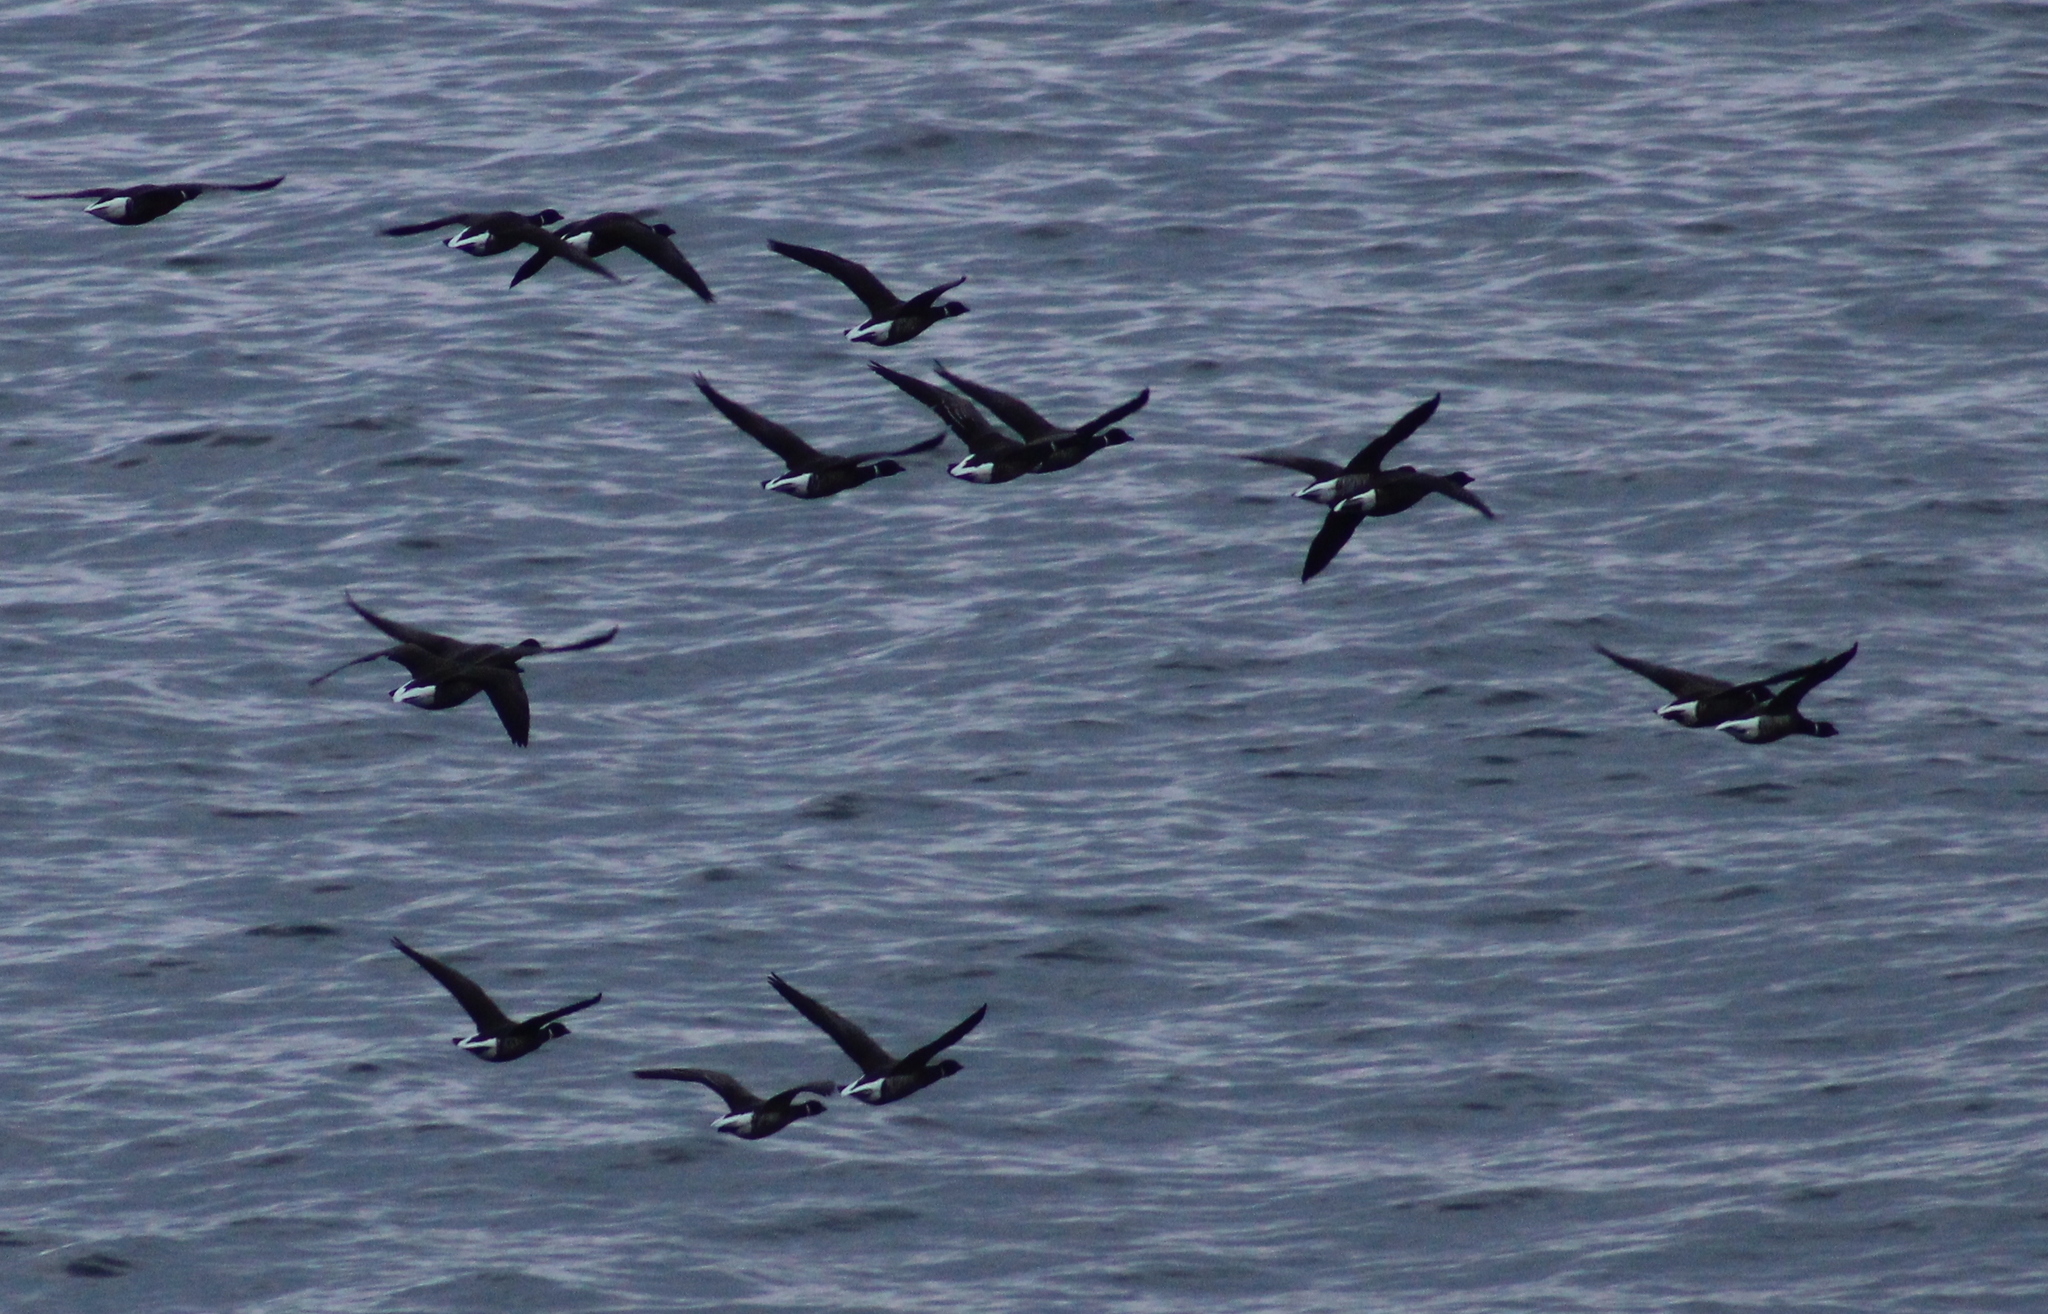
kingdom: Animalia
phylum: Chordata
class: Aves
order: Anseriformes
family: Anatidae
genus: Branta
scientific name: Branta bernicla
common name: Brant goose
